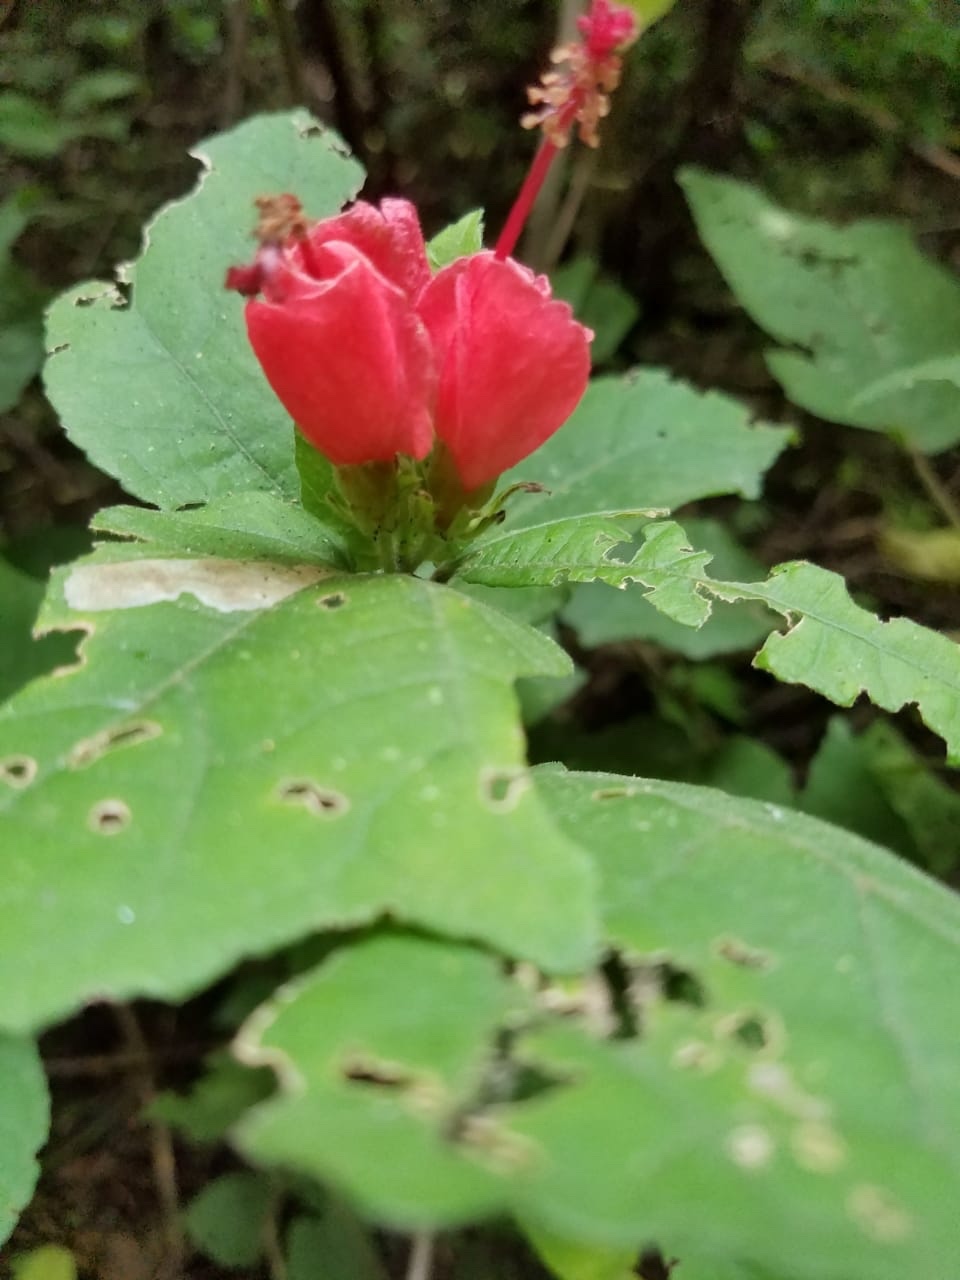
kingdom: Plantae
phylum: Tracheophyta
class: Magnoliopsida
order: Malvales
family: Malvaceae
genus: Malvaviscus
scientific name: Malvaviscus arboreus
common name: Wax mallow
